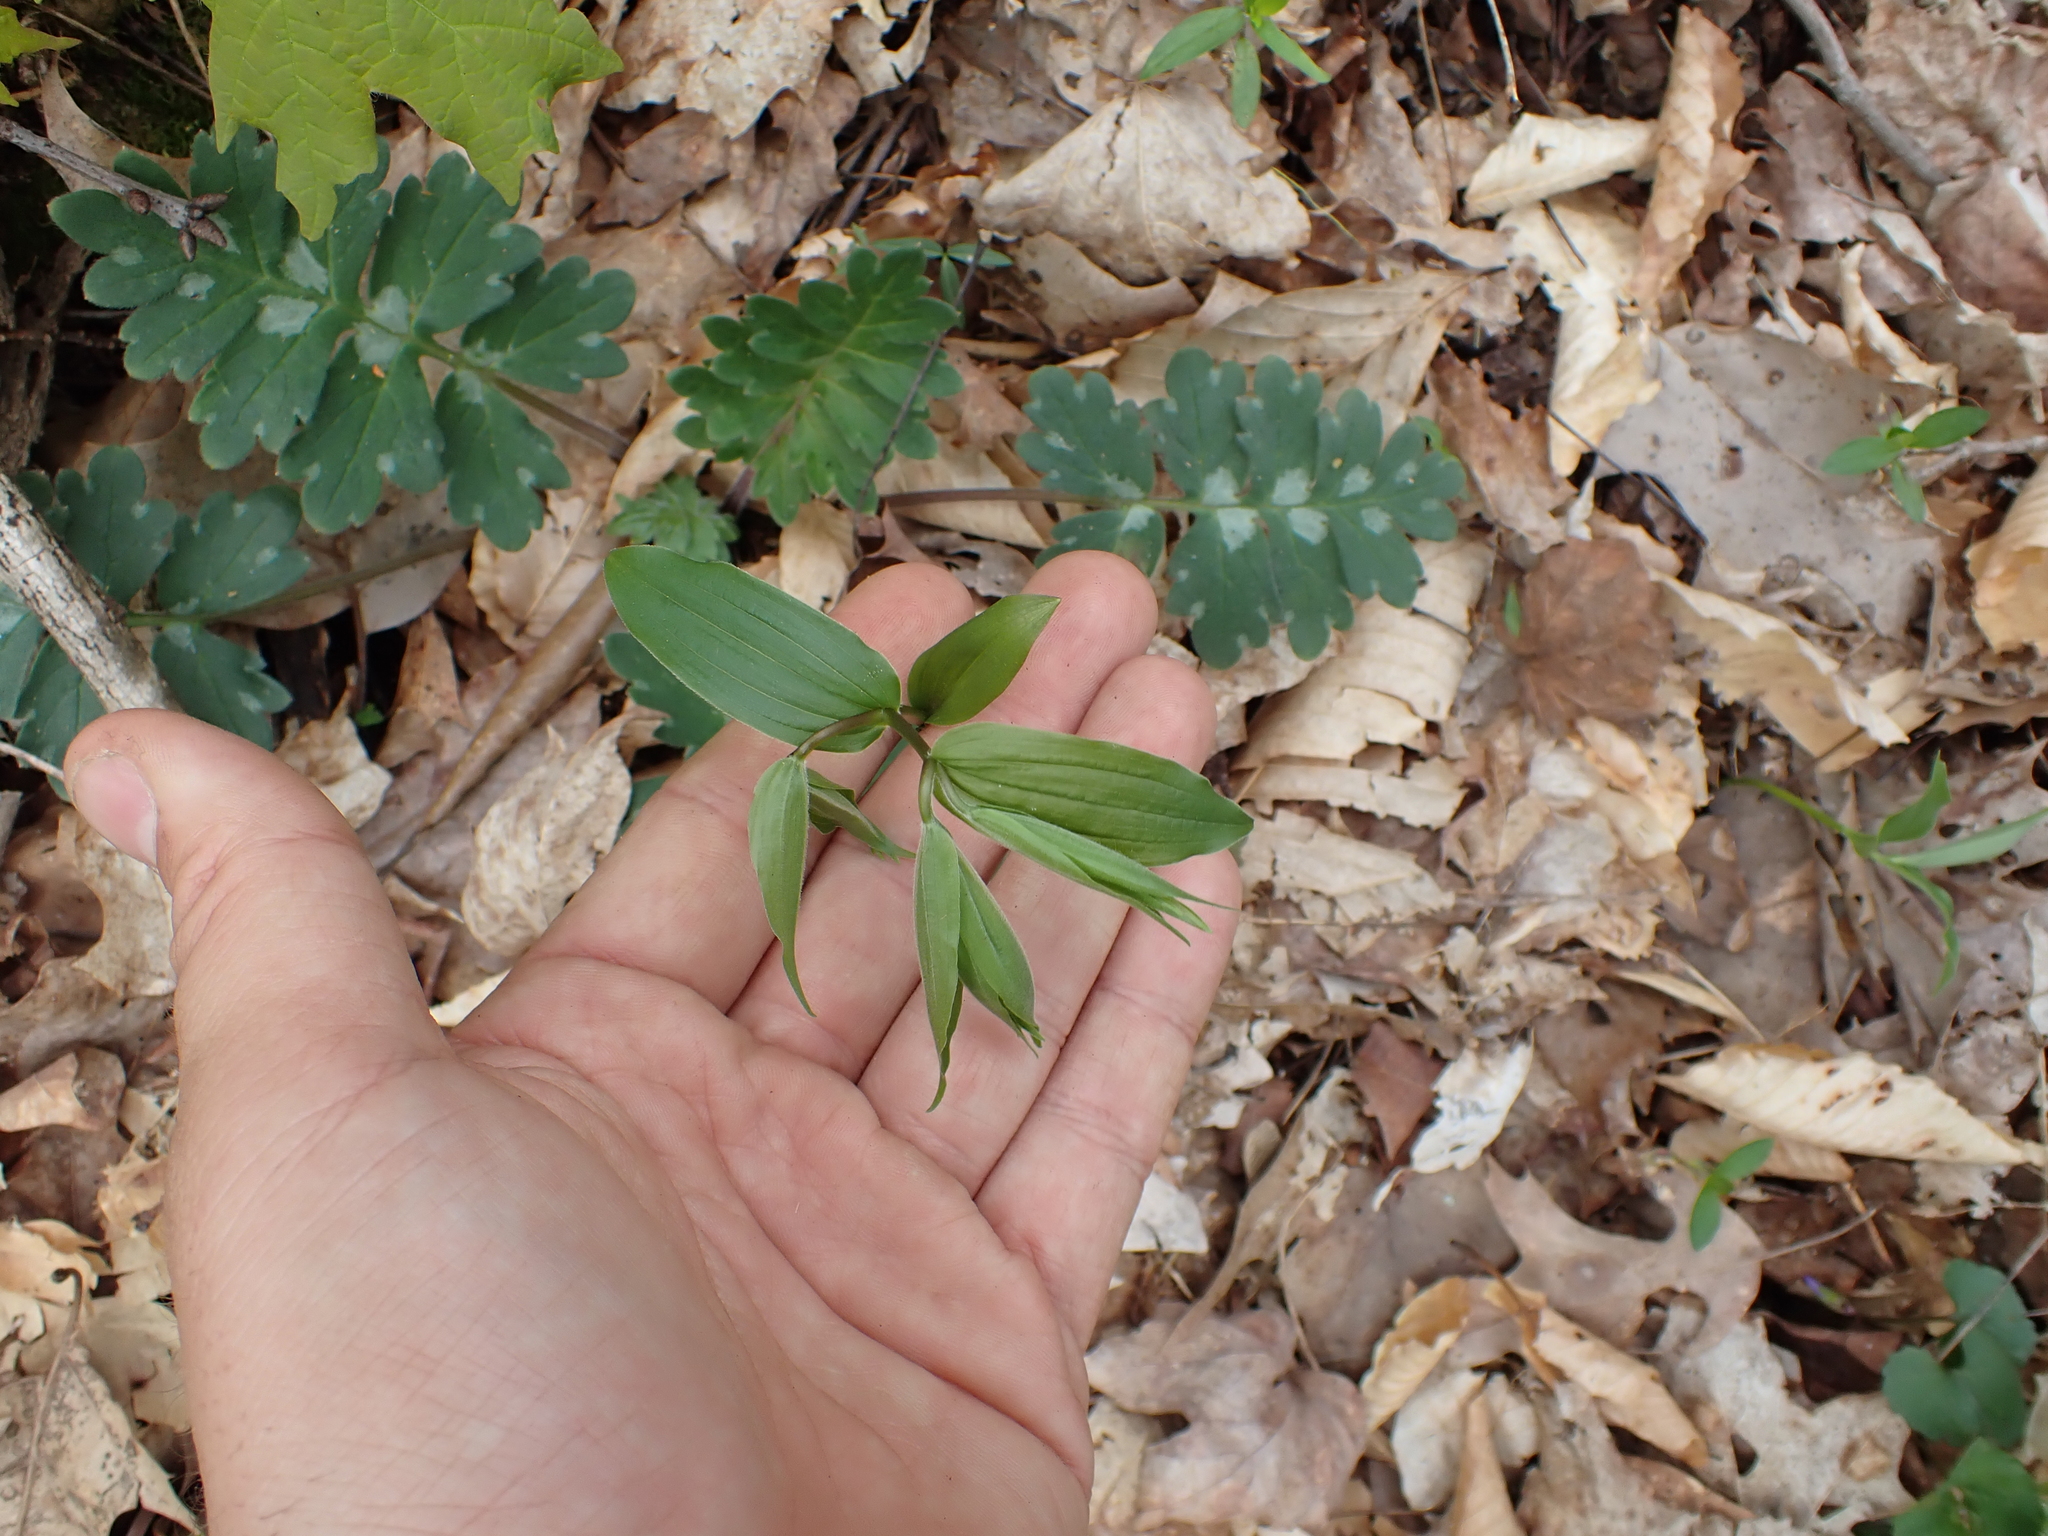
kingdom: Plantae
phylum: Tracheophyta
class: Liliopsida
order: Liliales
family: Liliaceae
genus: Prosartes
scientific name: Prosartes lanuginosa
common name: Hairy mandarin
